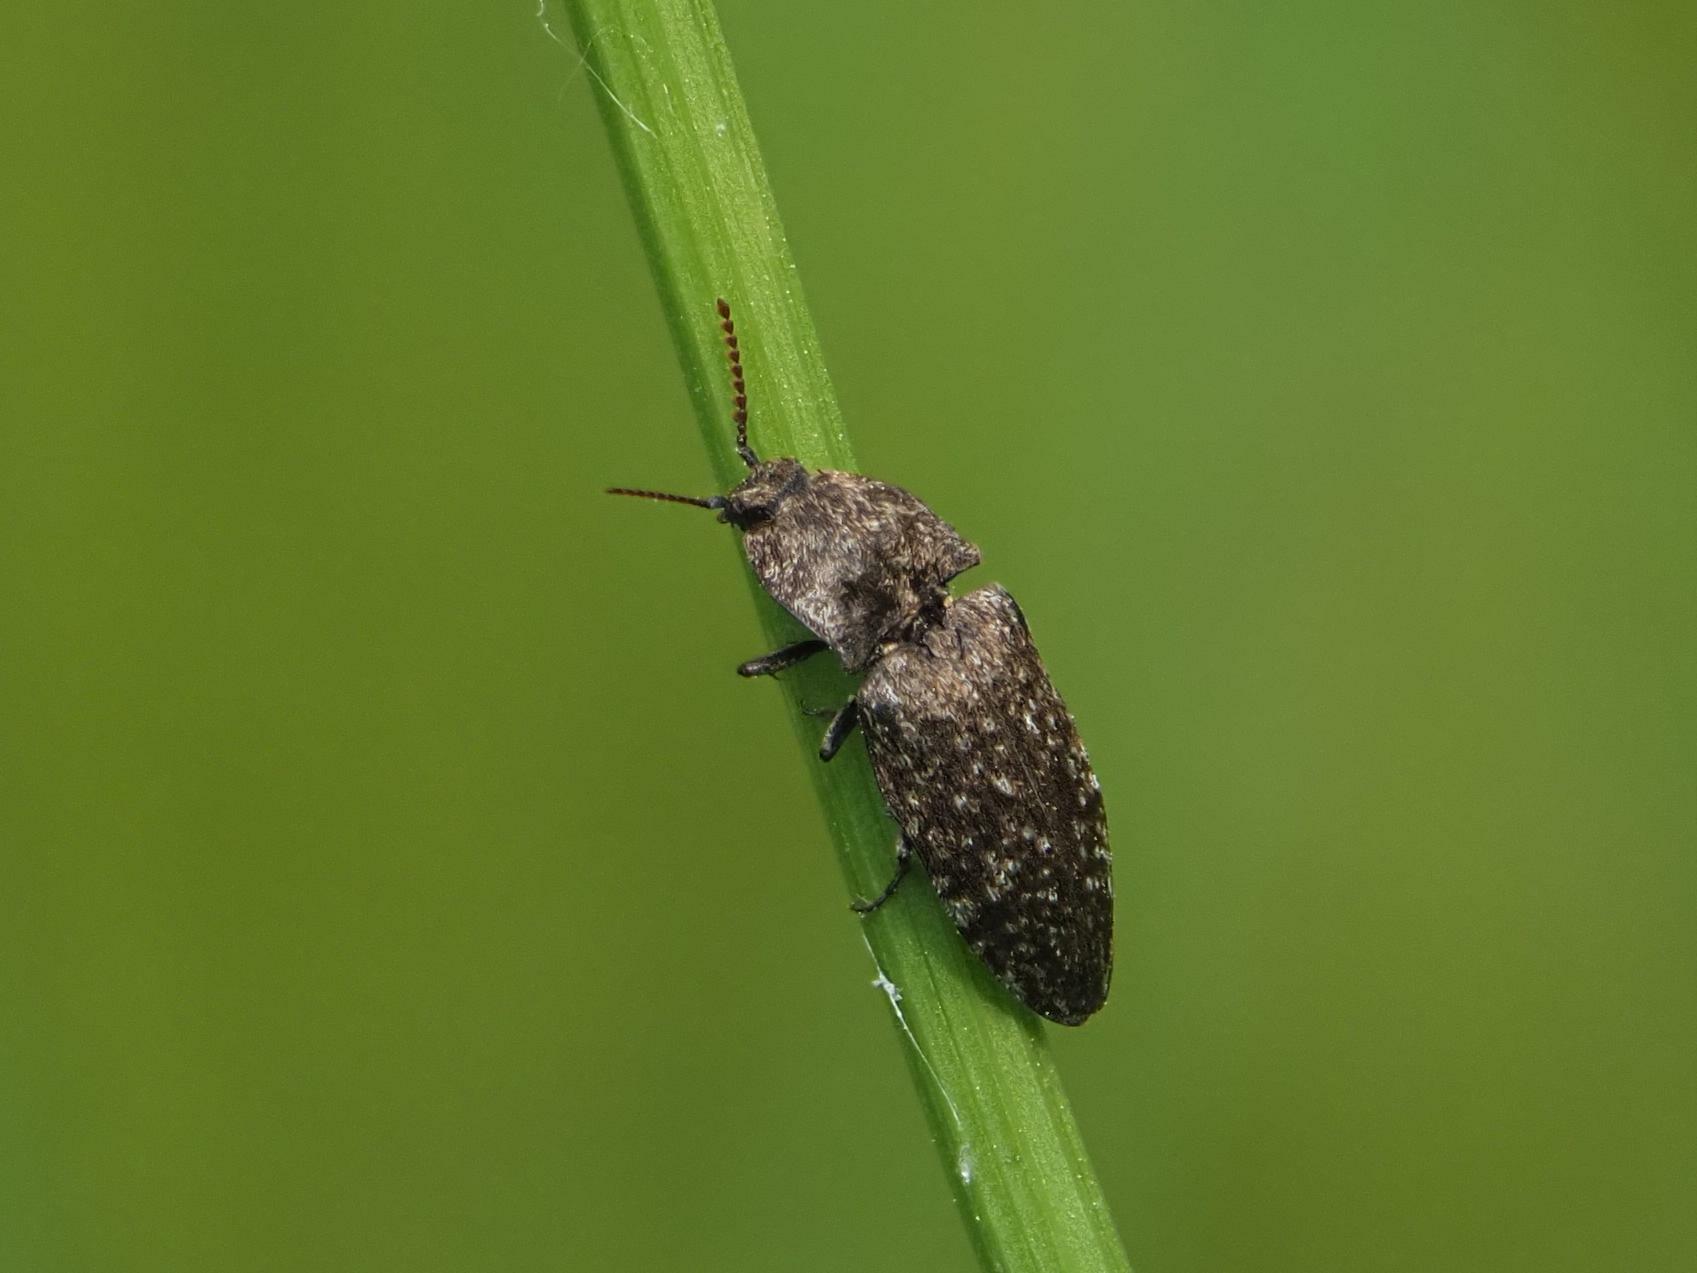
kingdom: Animalia
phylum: Arthropoda
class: Insecta
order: Coleoptera
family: Elateridae
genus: Agrypnus
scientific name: Agrypnus murinus
